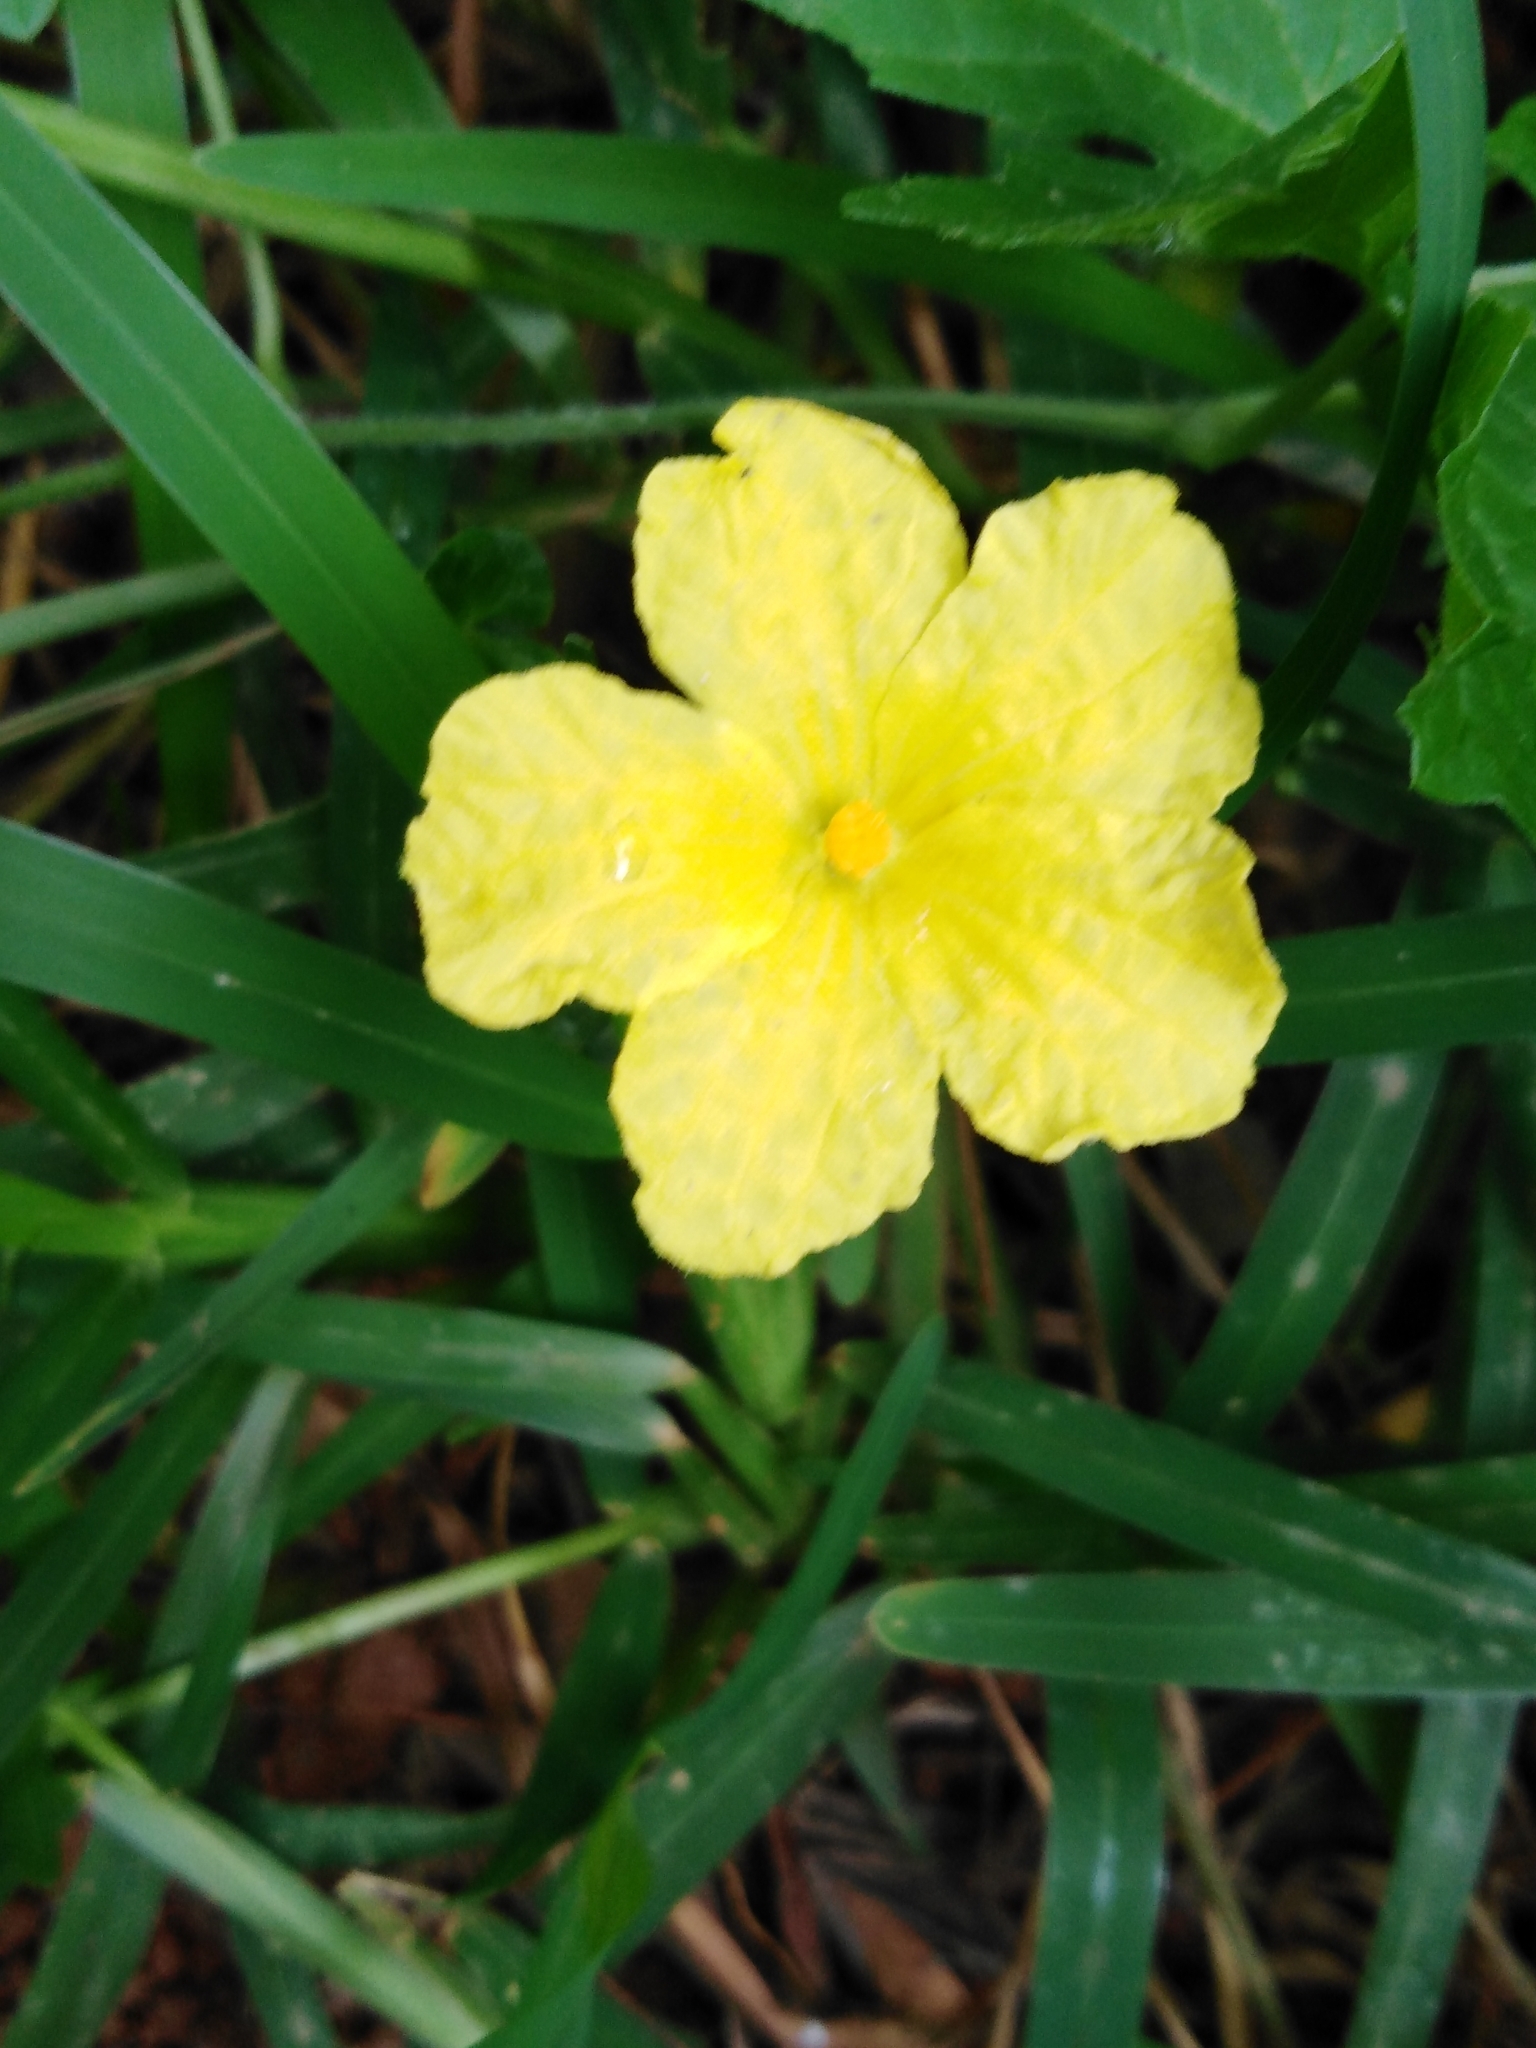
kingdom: Plantae
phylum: Tracheophyta
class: Magnoliopsida
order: Cucurbitales
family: Cucurbitaceae
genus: Momordica
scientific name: Momordica charantia
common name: Balsampear
